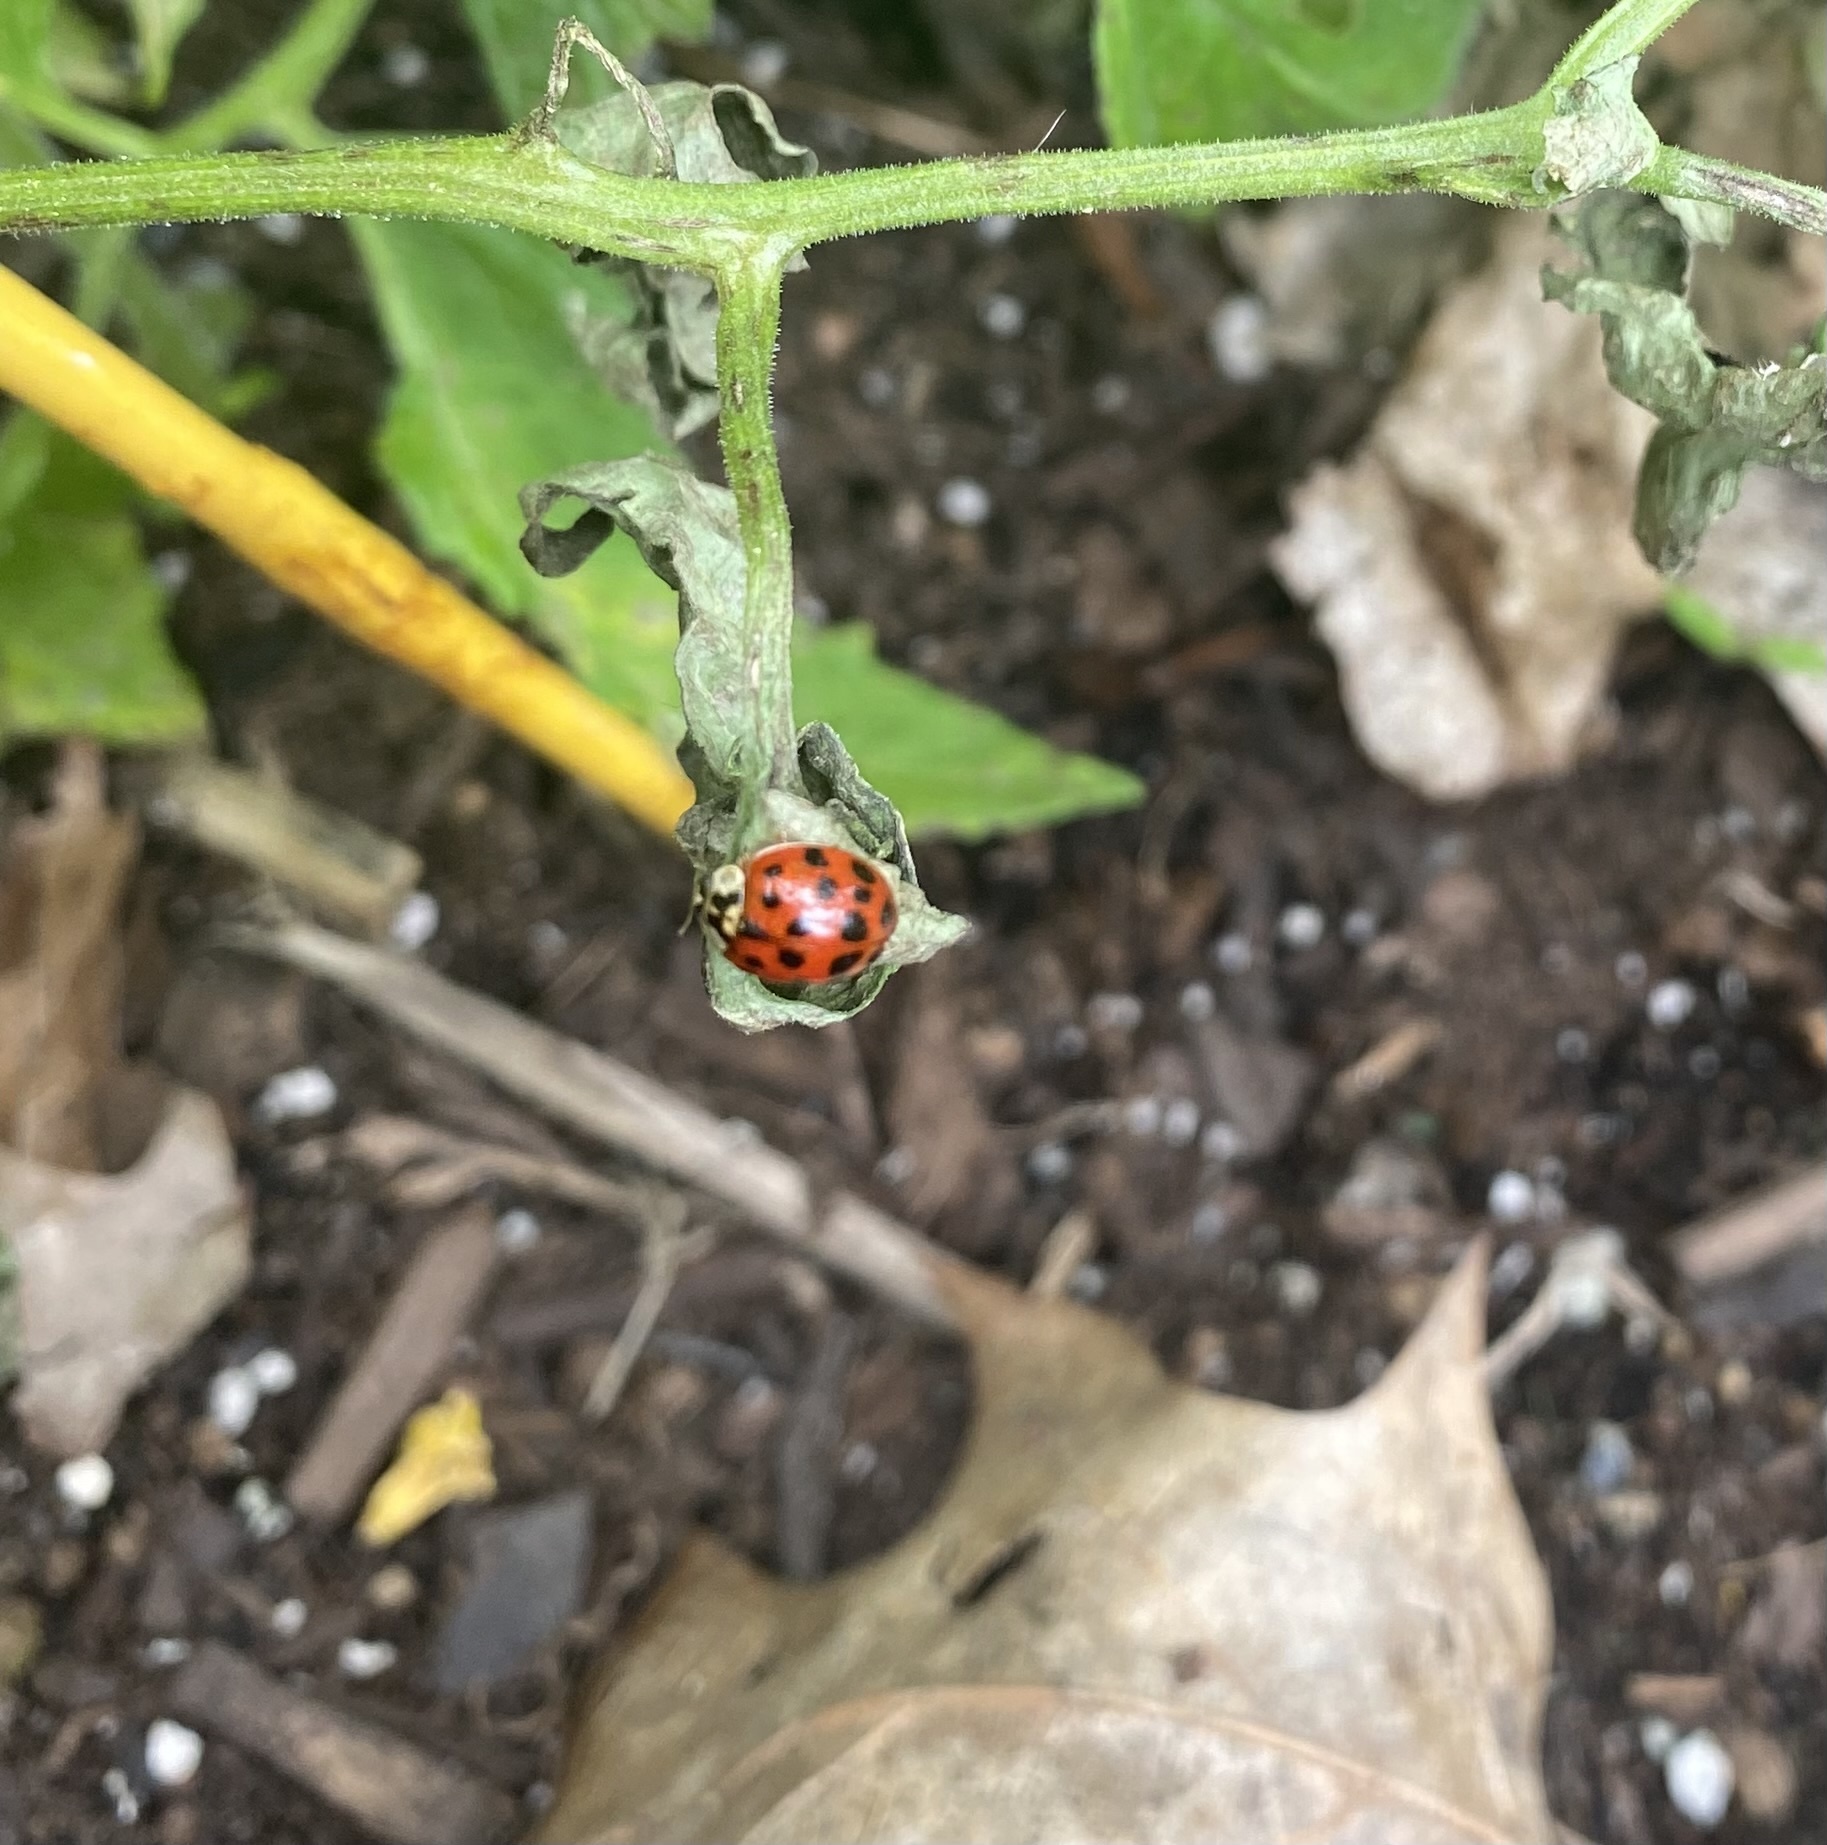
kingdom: Animalia
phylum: Arthropoda
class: Insecta
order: Coleoptera
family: Coccinellidae
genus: Harmonia
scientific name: Harmonia axyridis
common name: Harlequin ladybird
